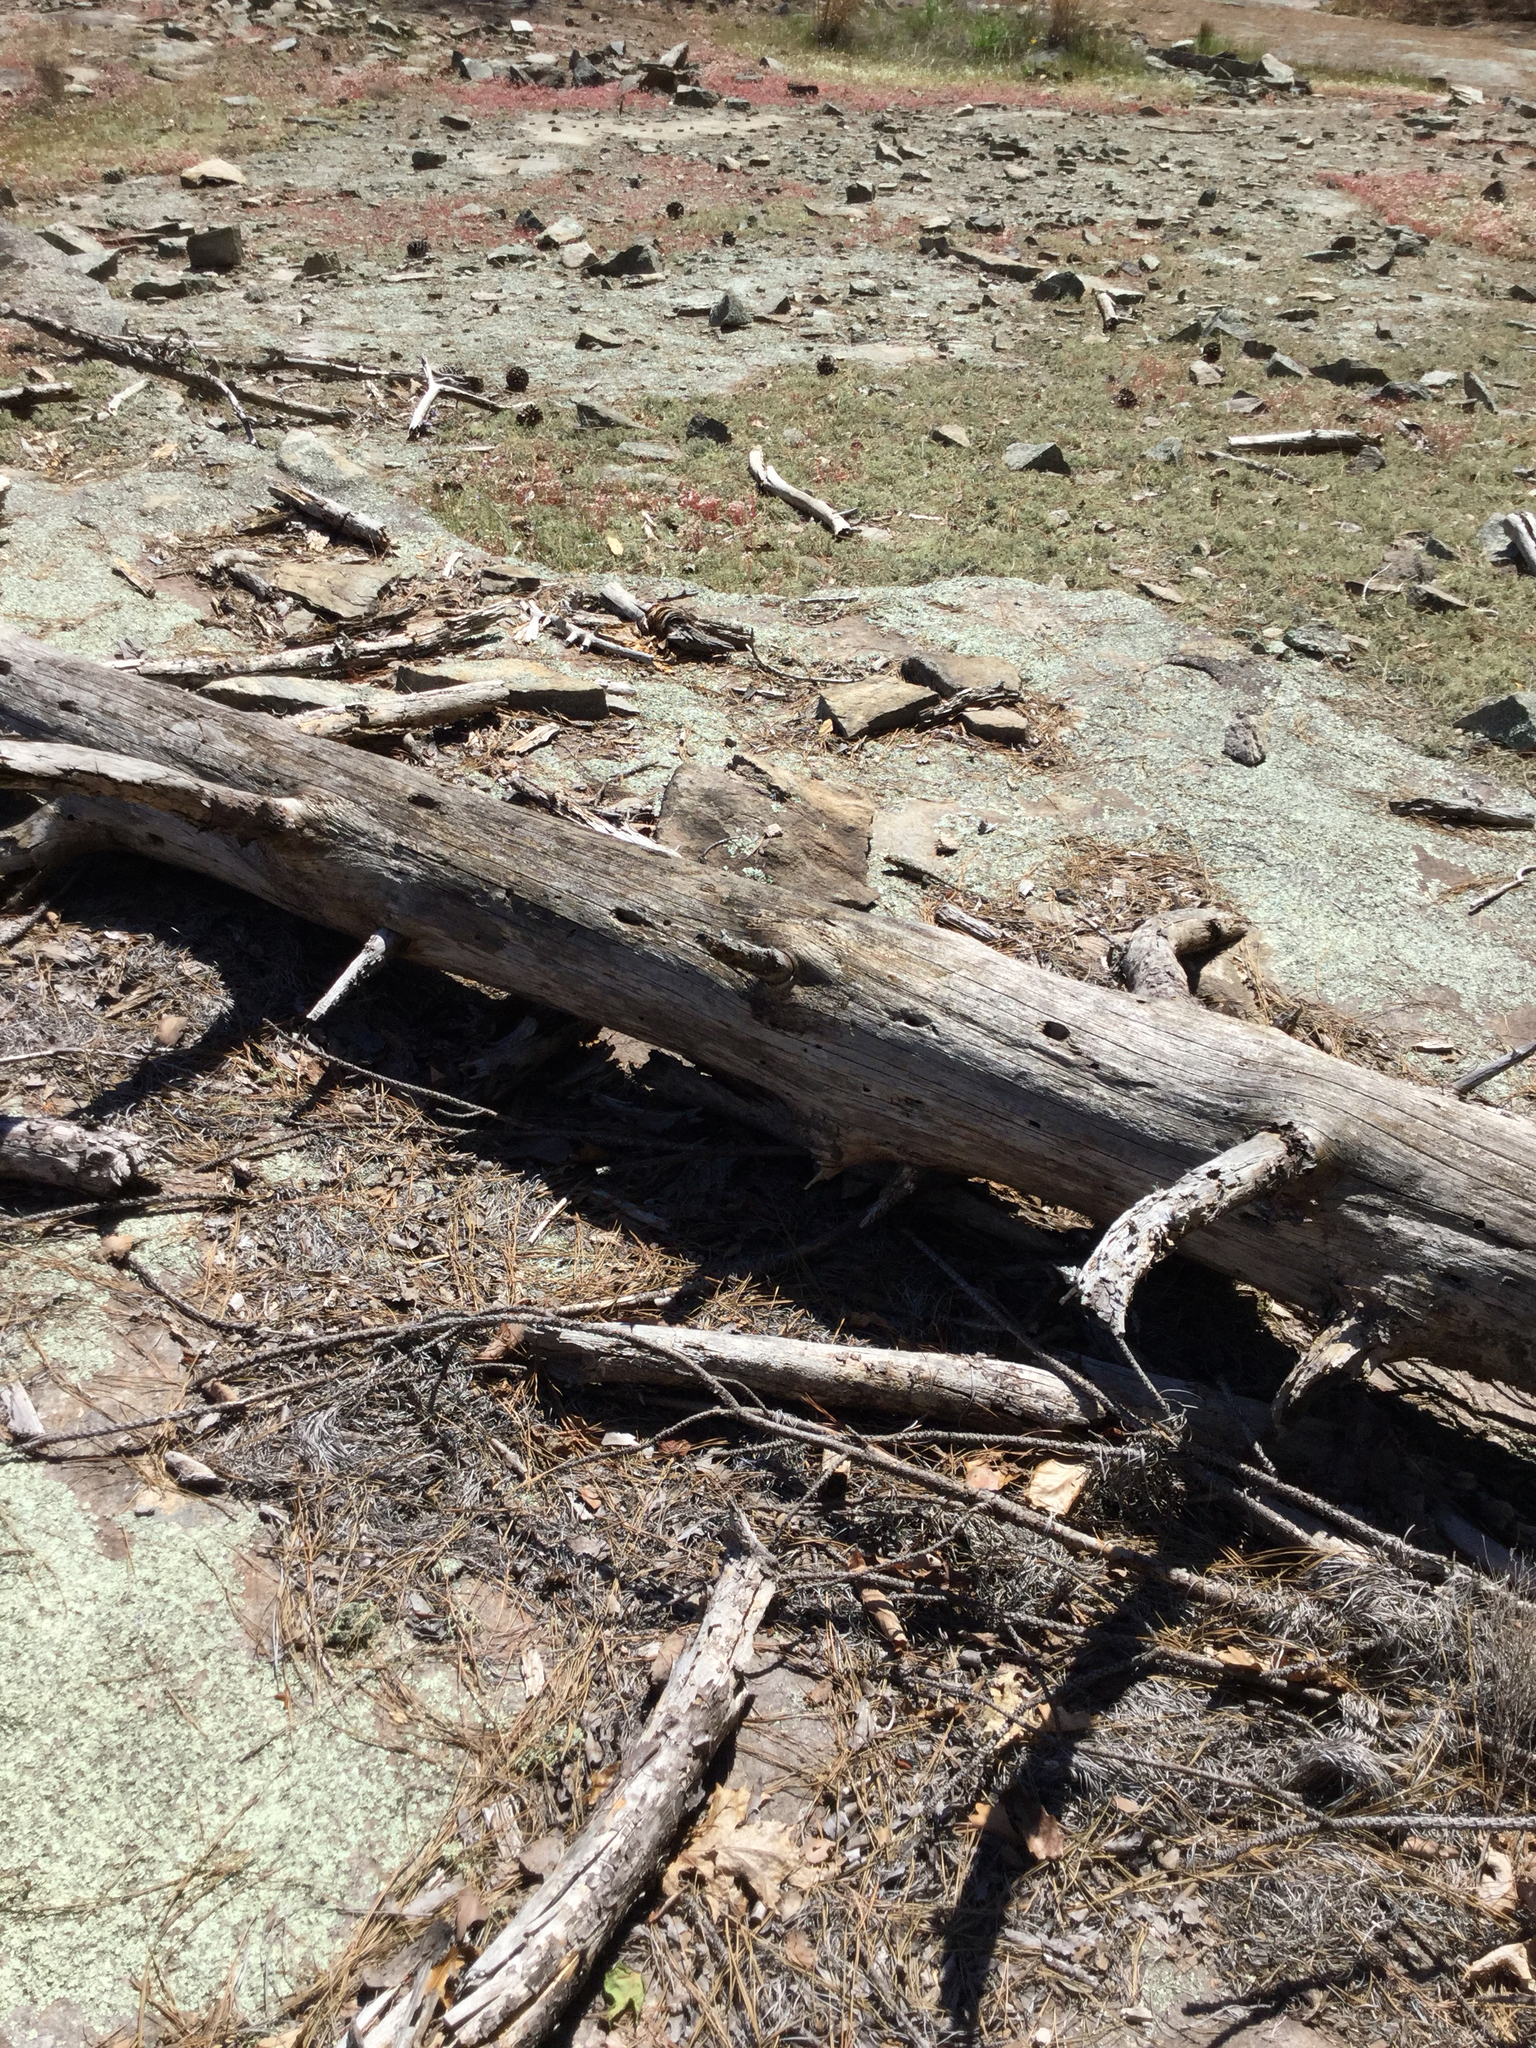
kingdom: Animalia
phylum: Chordata
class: Squamata
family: Phrynosomatidae
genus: Sceloporus
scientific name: Sceloporus undulatus
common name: Eastern fence lizard
